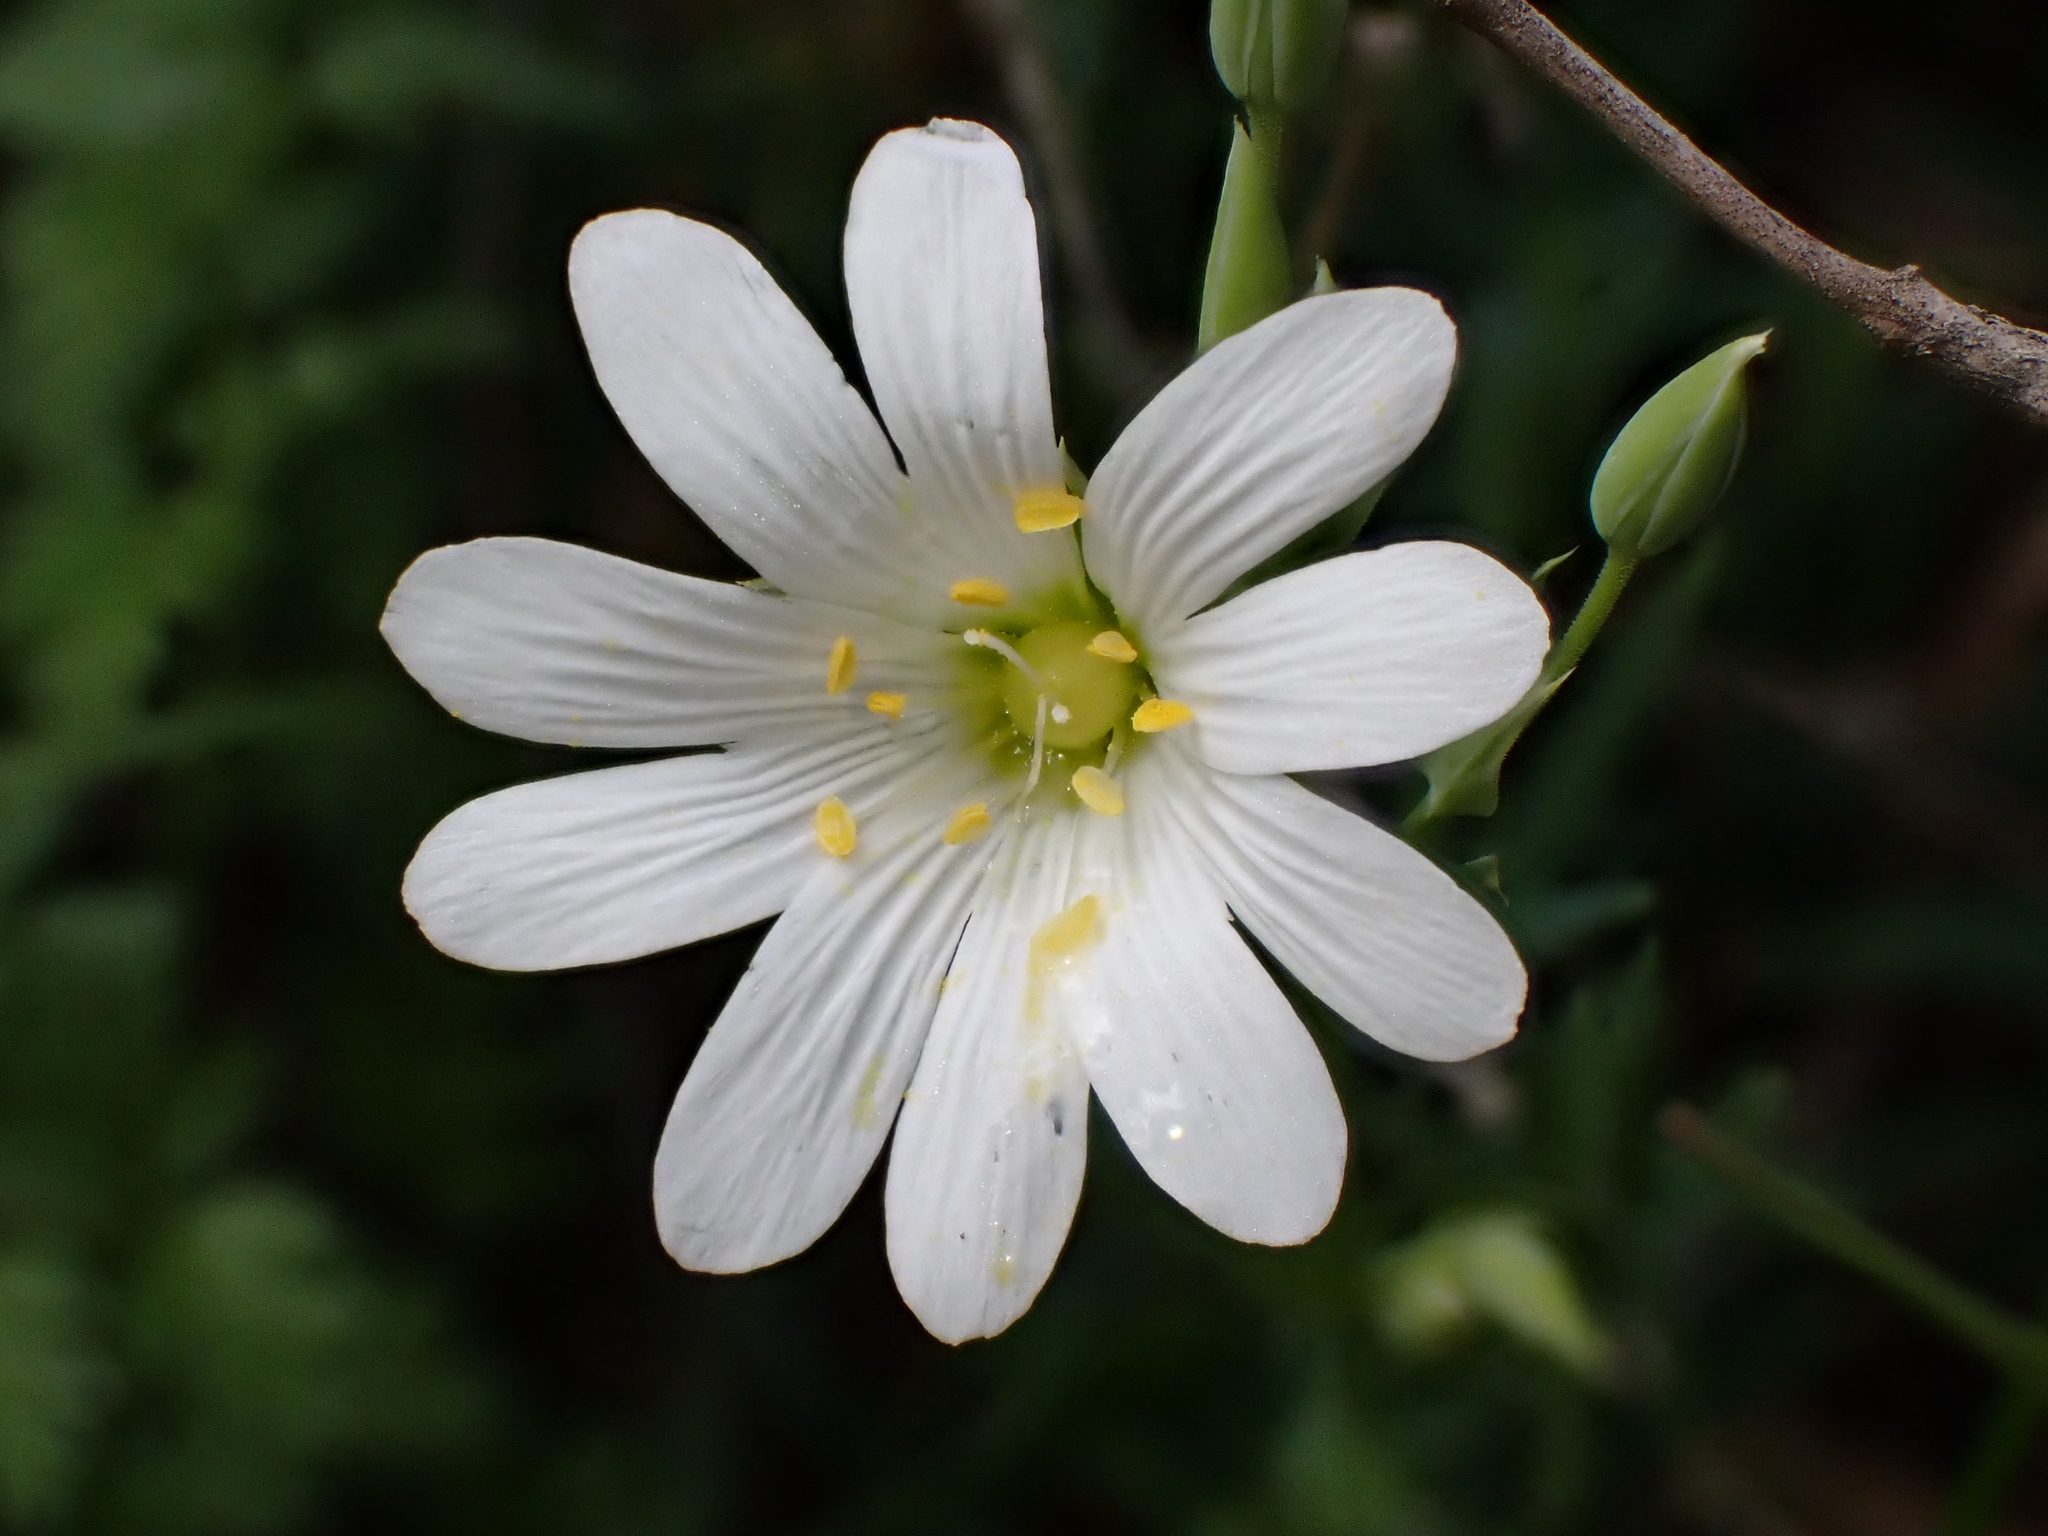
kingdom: Plantae
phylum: Tracheophyta
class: Magnoliopsida
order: Caryophyllales
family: Caryophyllaceae
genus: Rabelera
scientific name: Rabelera holostea
